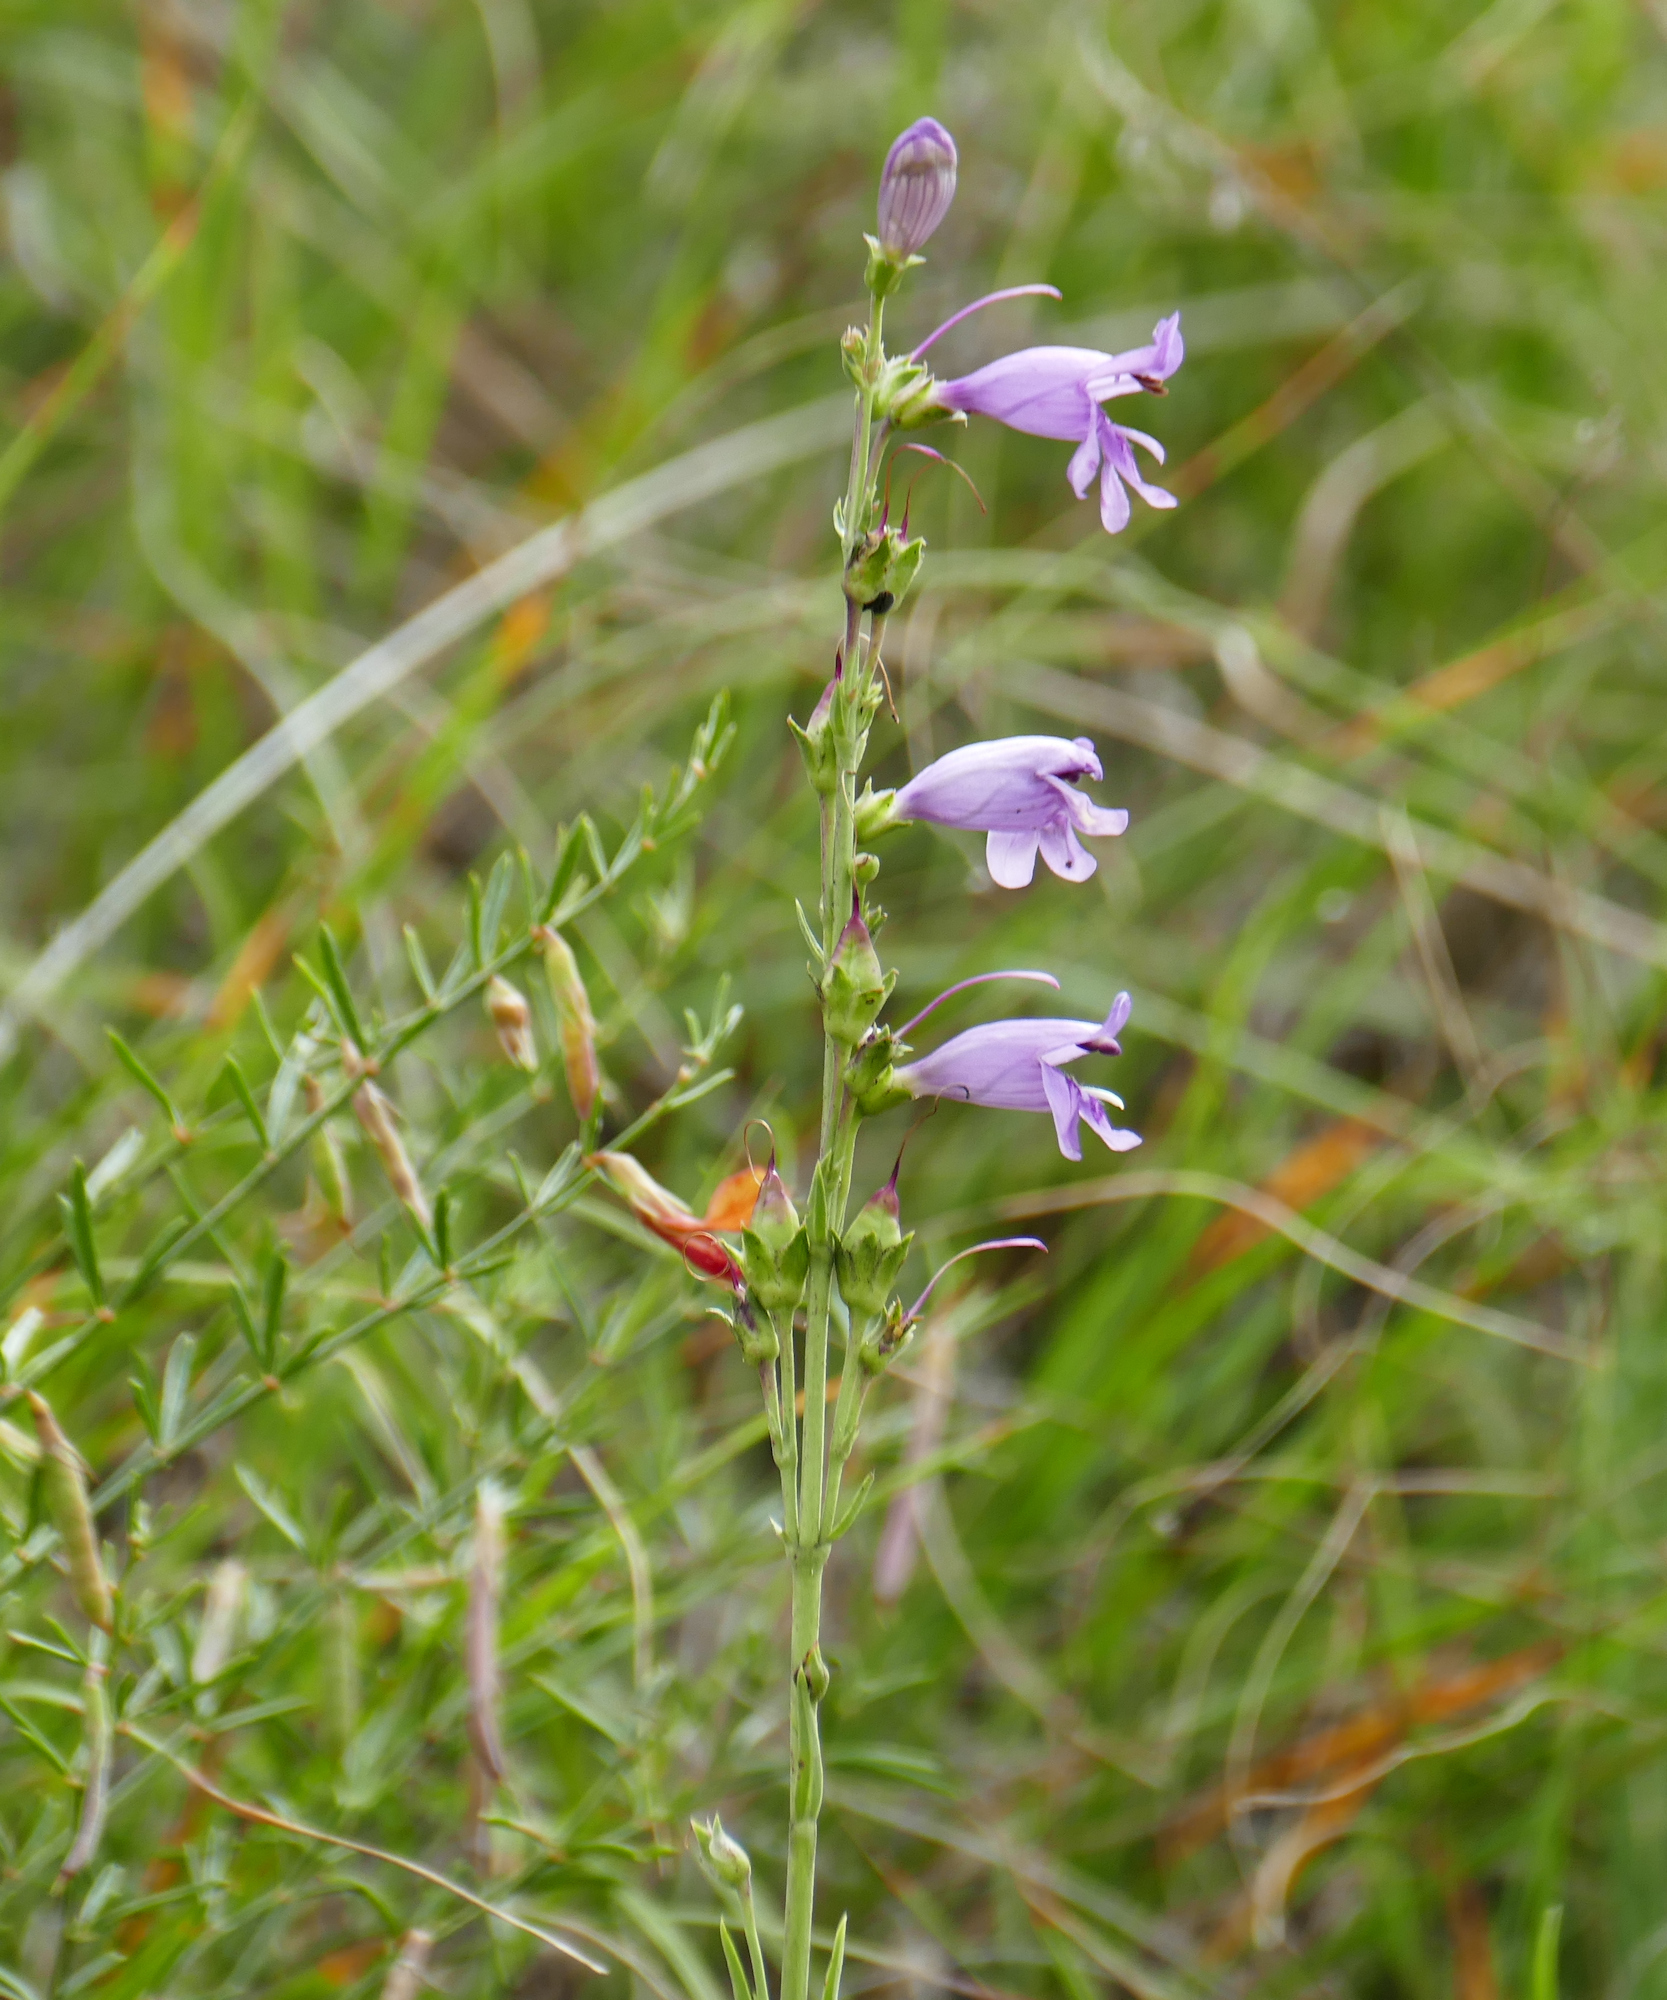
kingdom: Plantae
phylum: Tracheophyta
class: Magnoliopsida
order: Lamiales
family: Plantaginaceae
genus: Penstemon
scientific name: Penstemon virgatus
